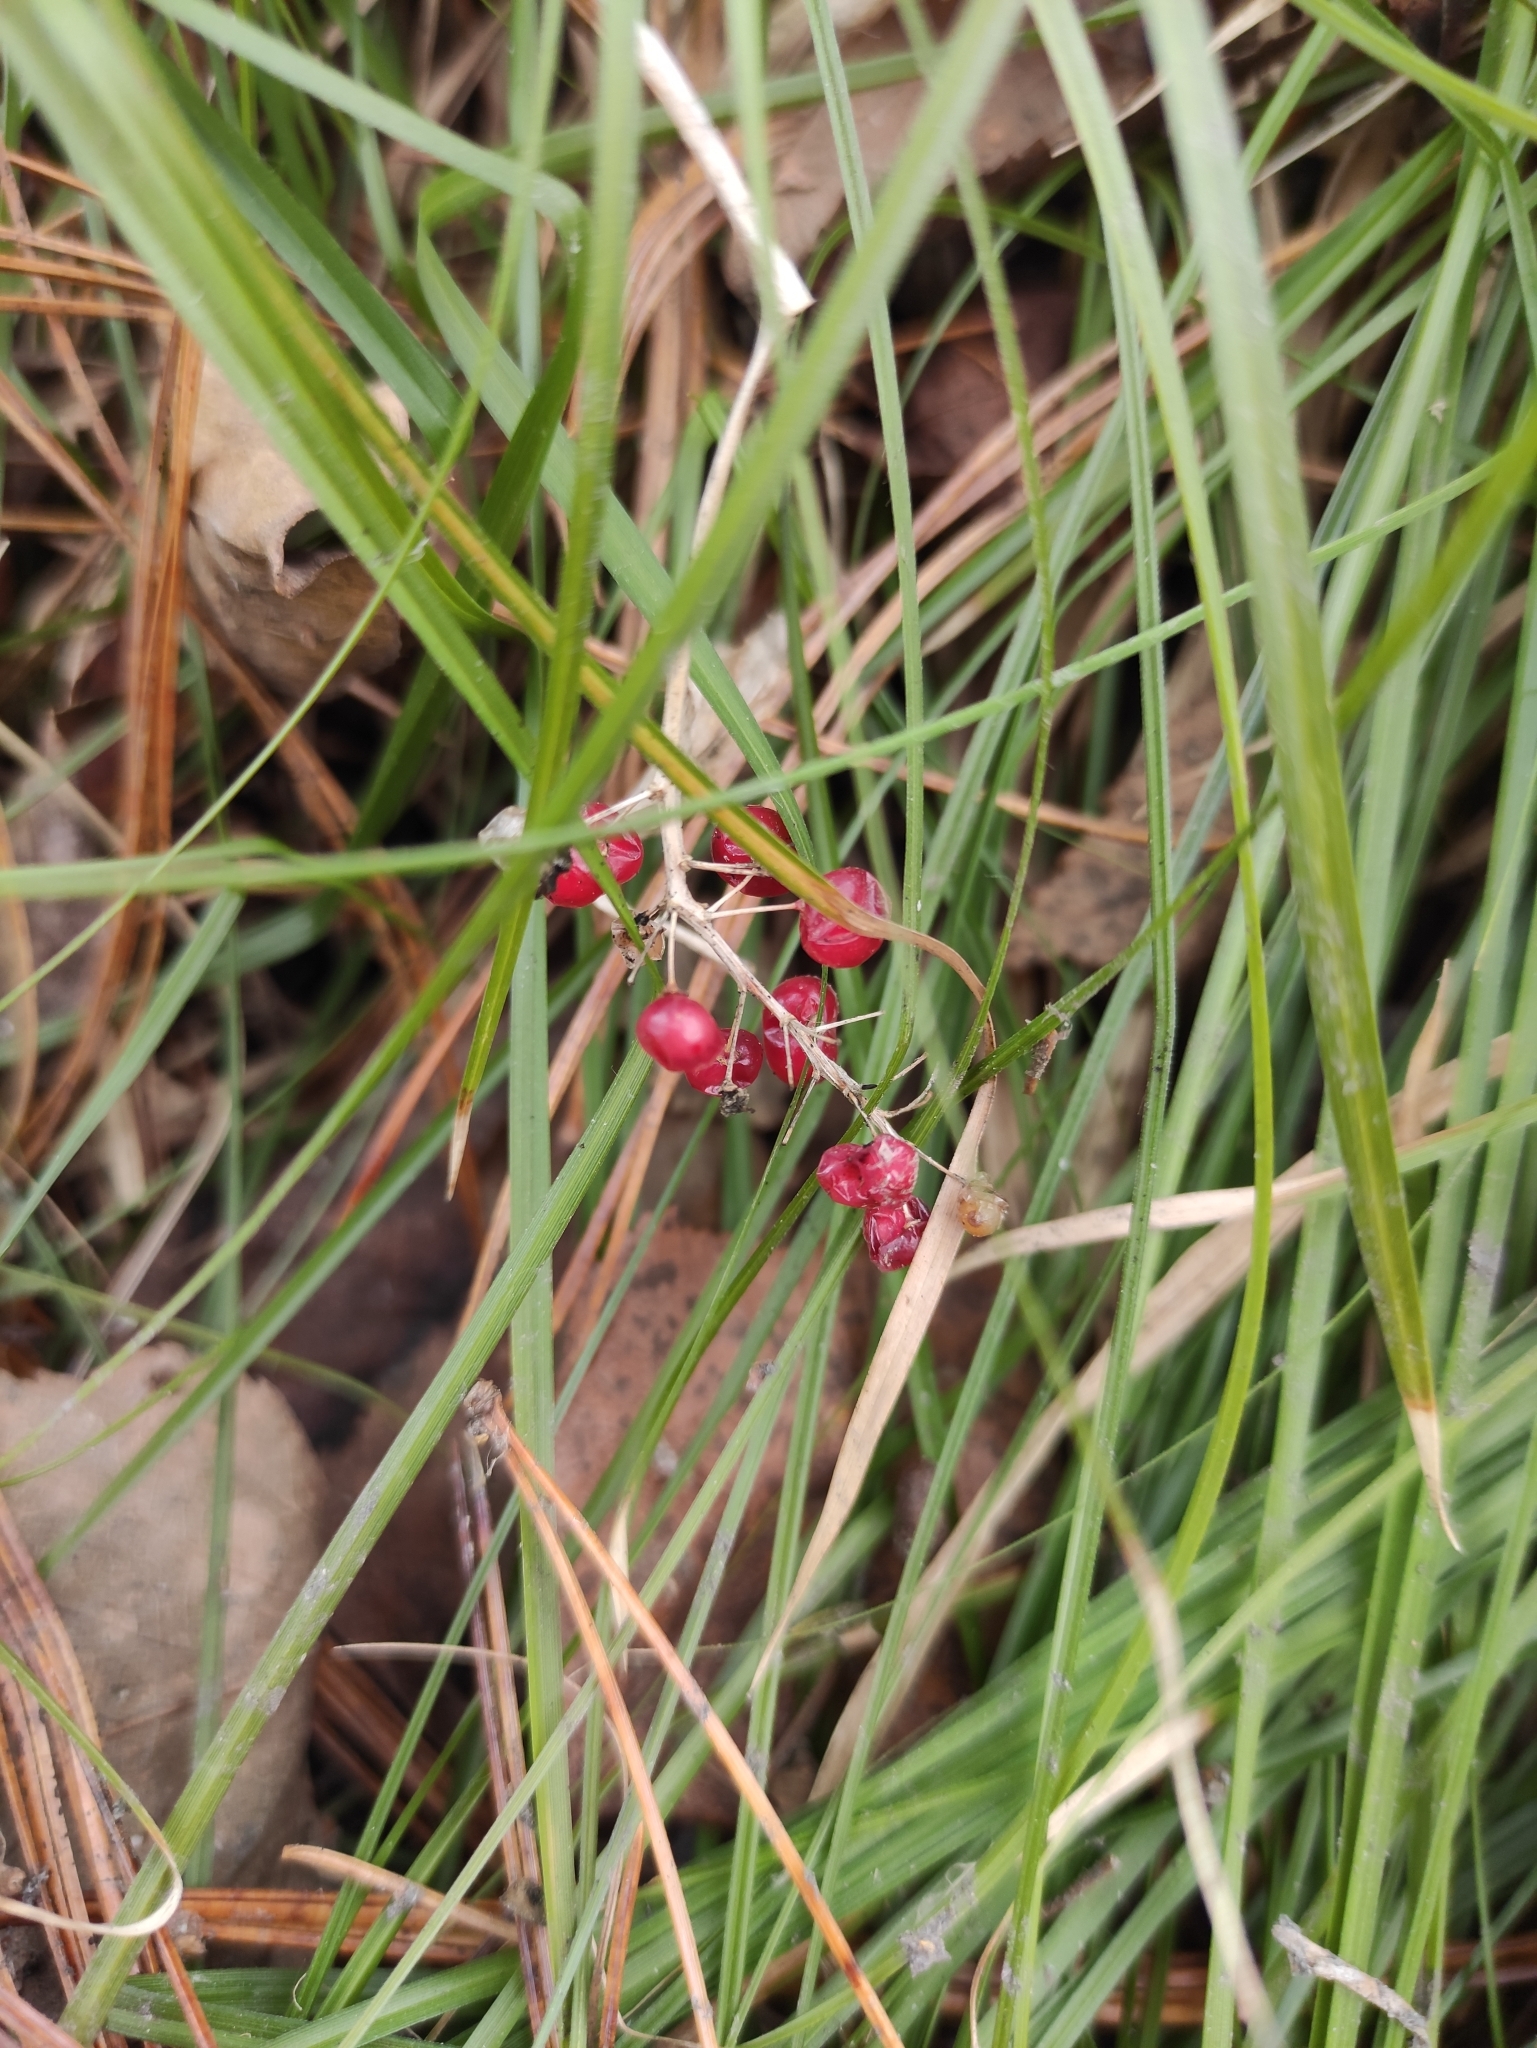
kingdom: Plantae
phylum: Tracheophyta
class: Liliopsida
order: Asparagales
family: Asparagaceae
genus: Maianthemum
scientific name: Maianthemum bifolium
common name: May lily
